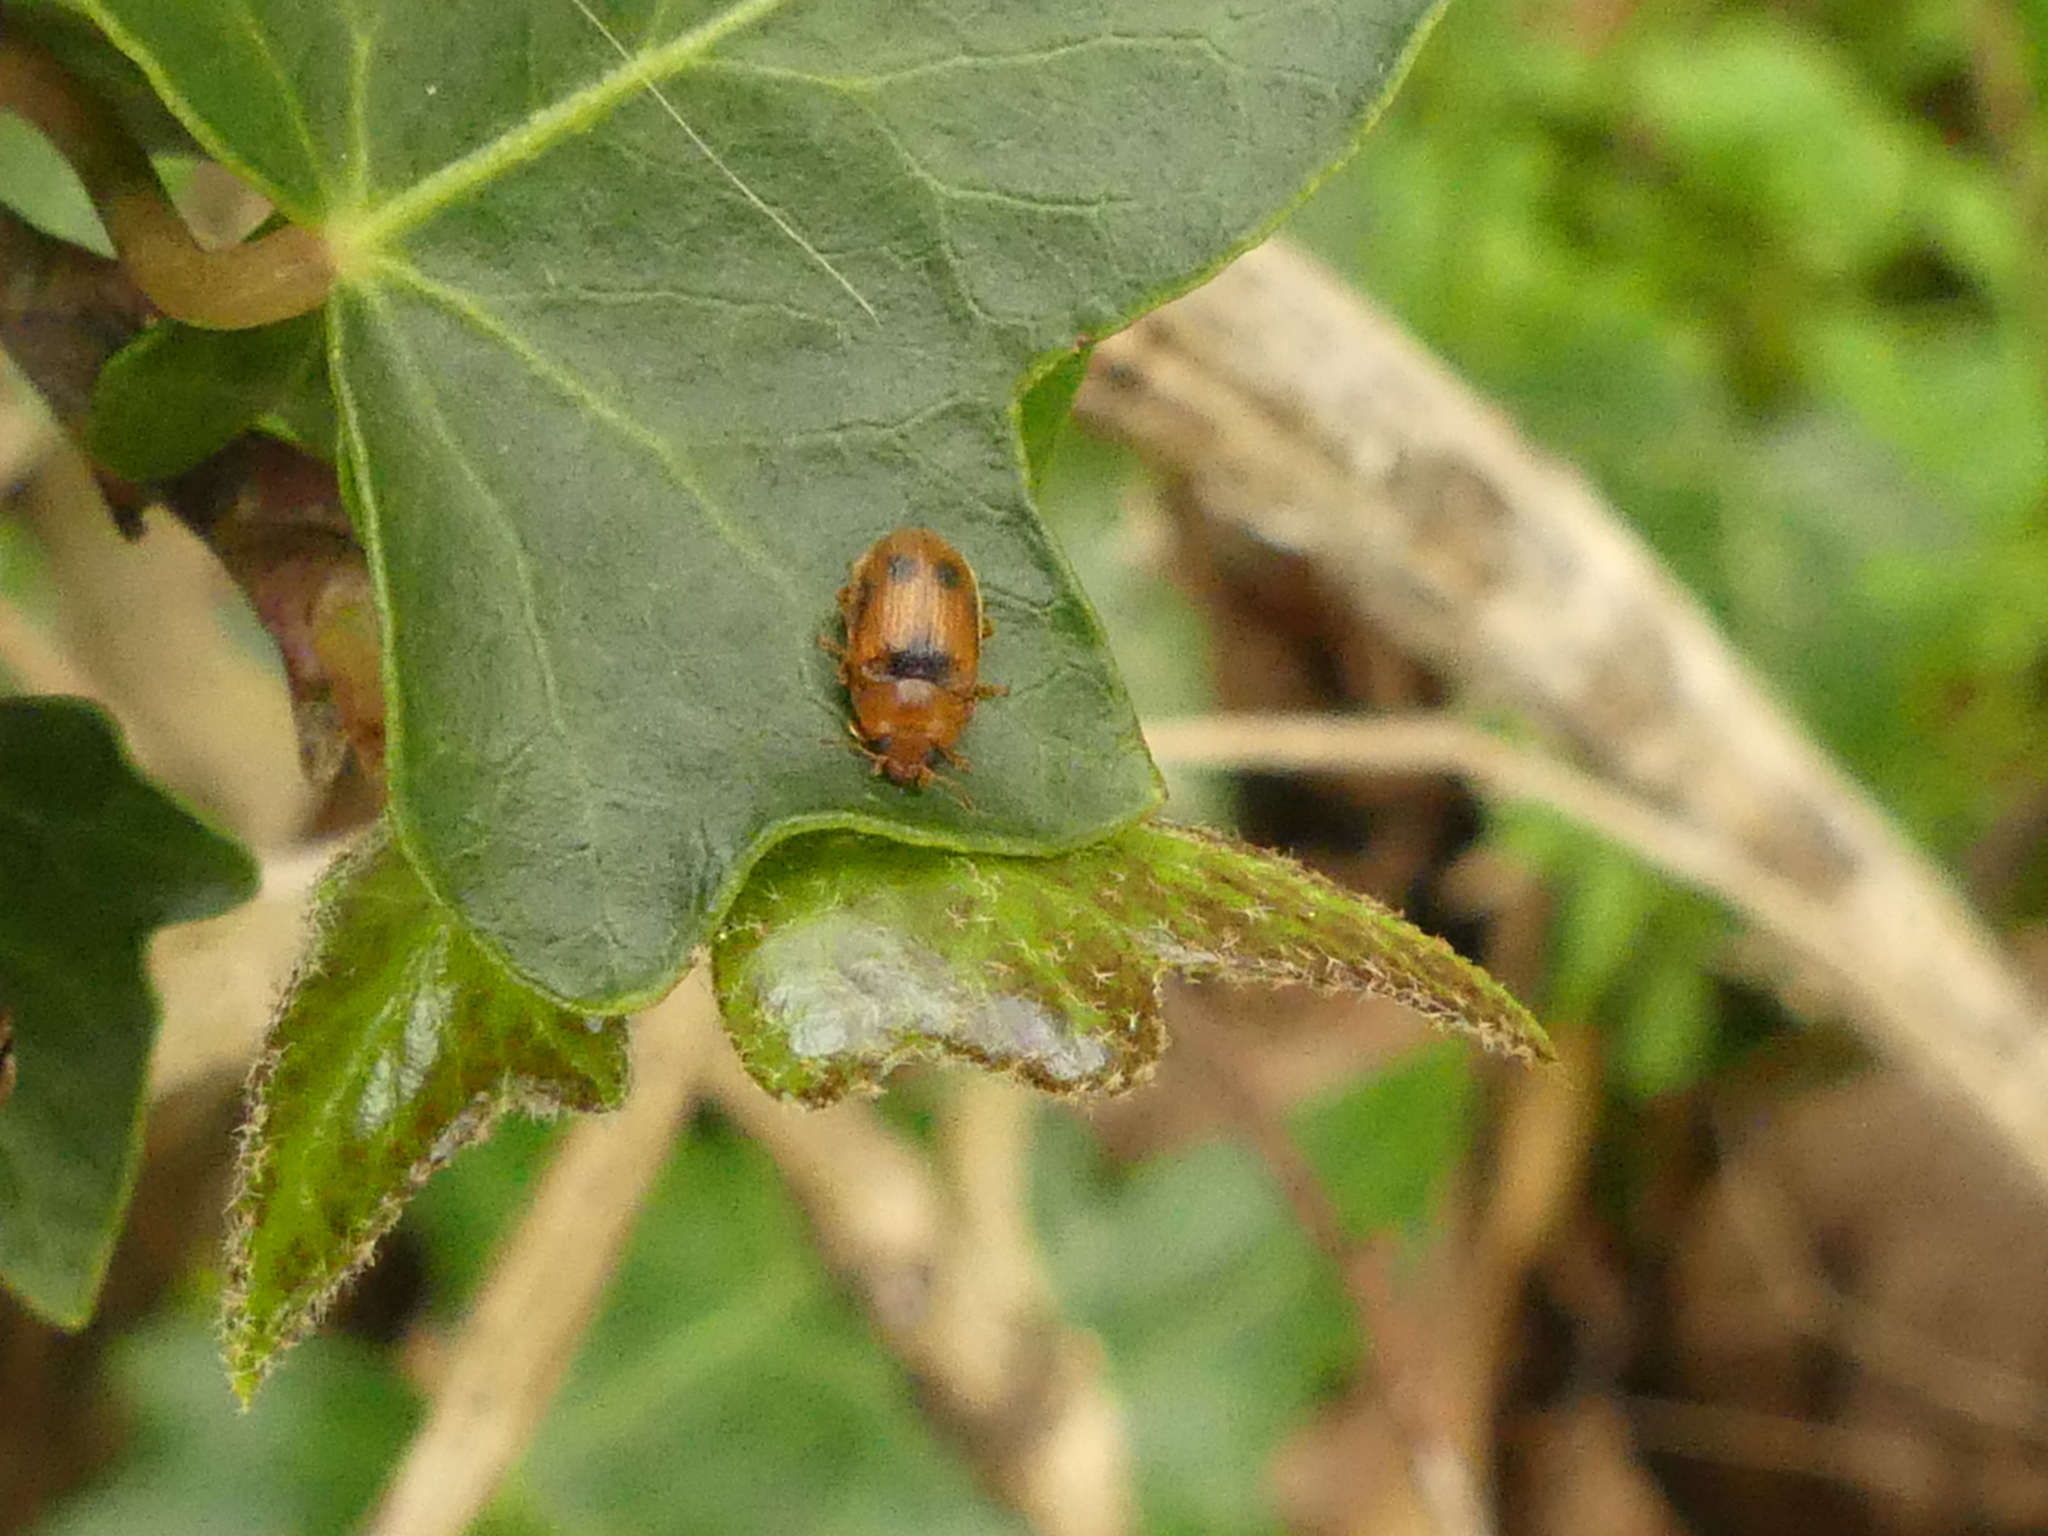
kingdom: Animalia
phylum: Arthropoda
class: Insecta
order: Coleoptera
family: Coccinellidae
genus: Coccidula
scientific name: Coccidula scutellata
